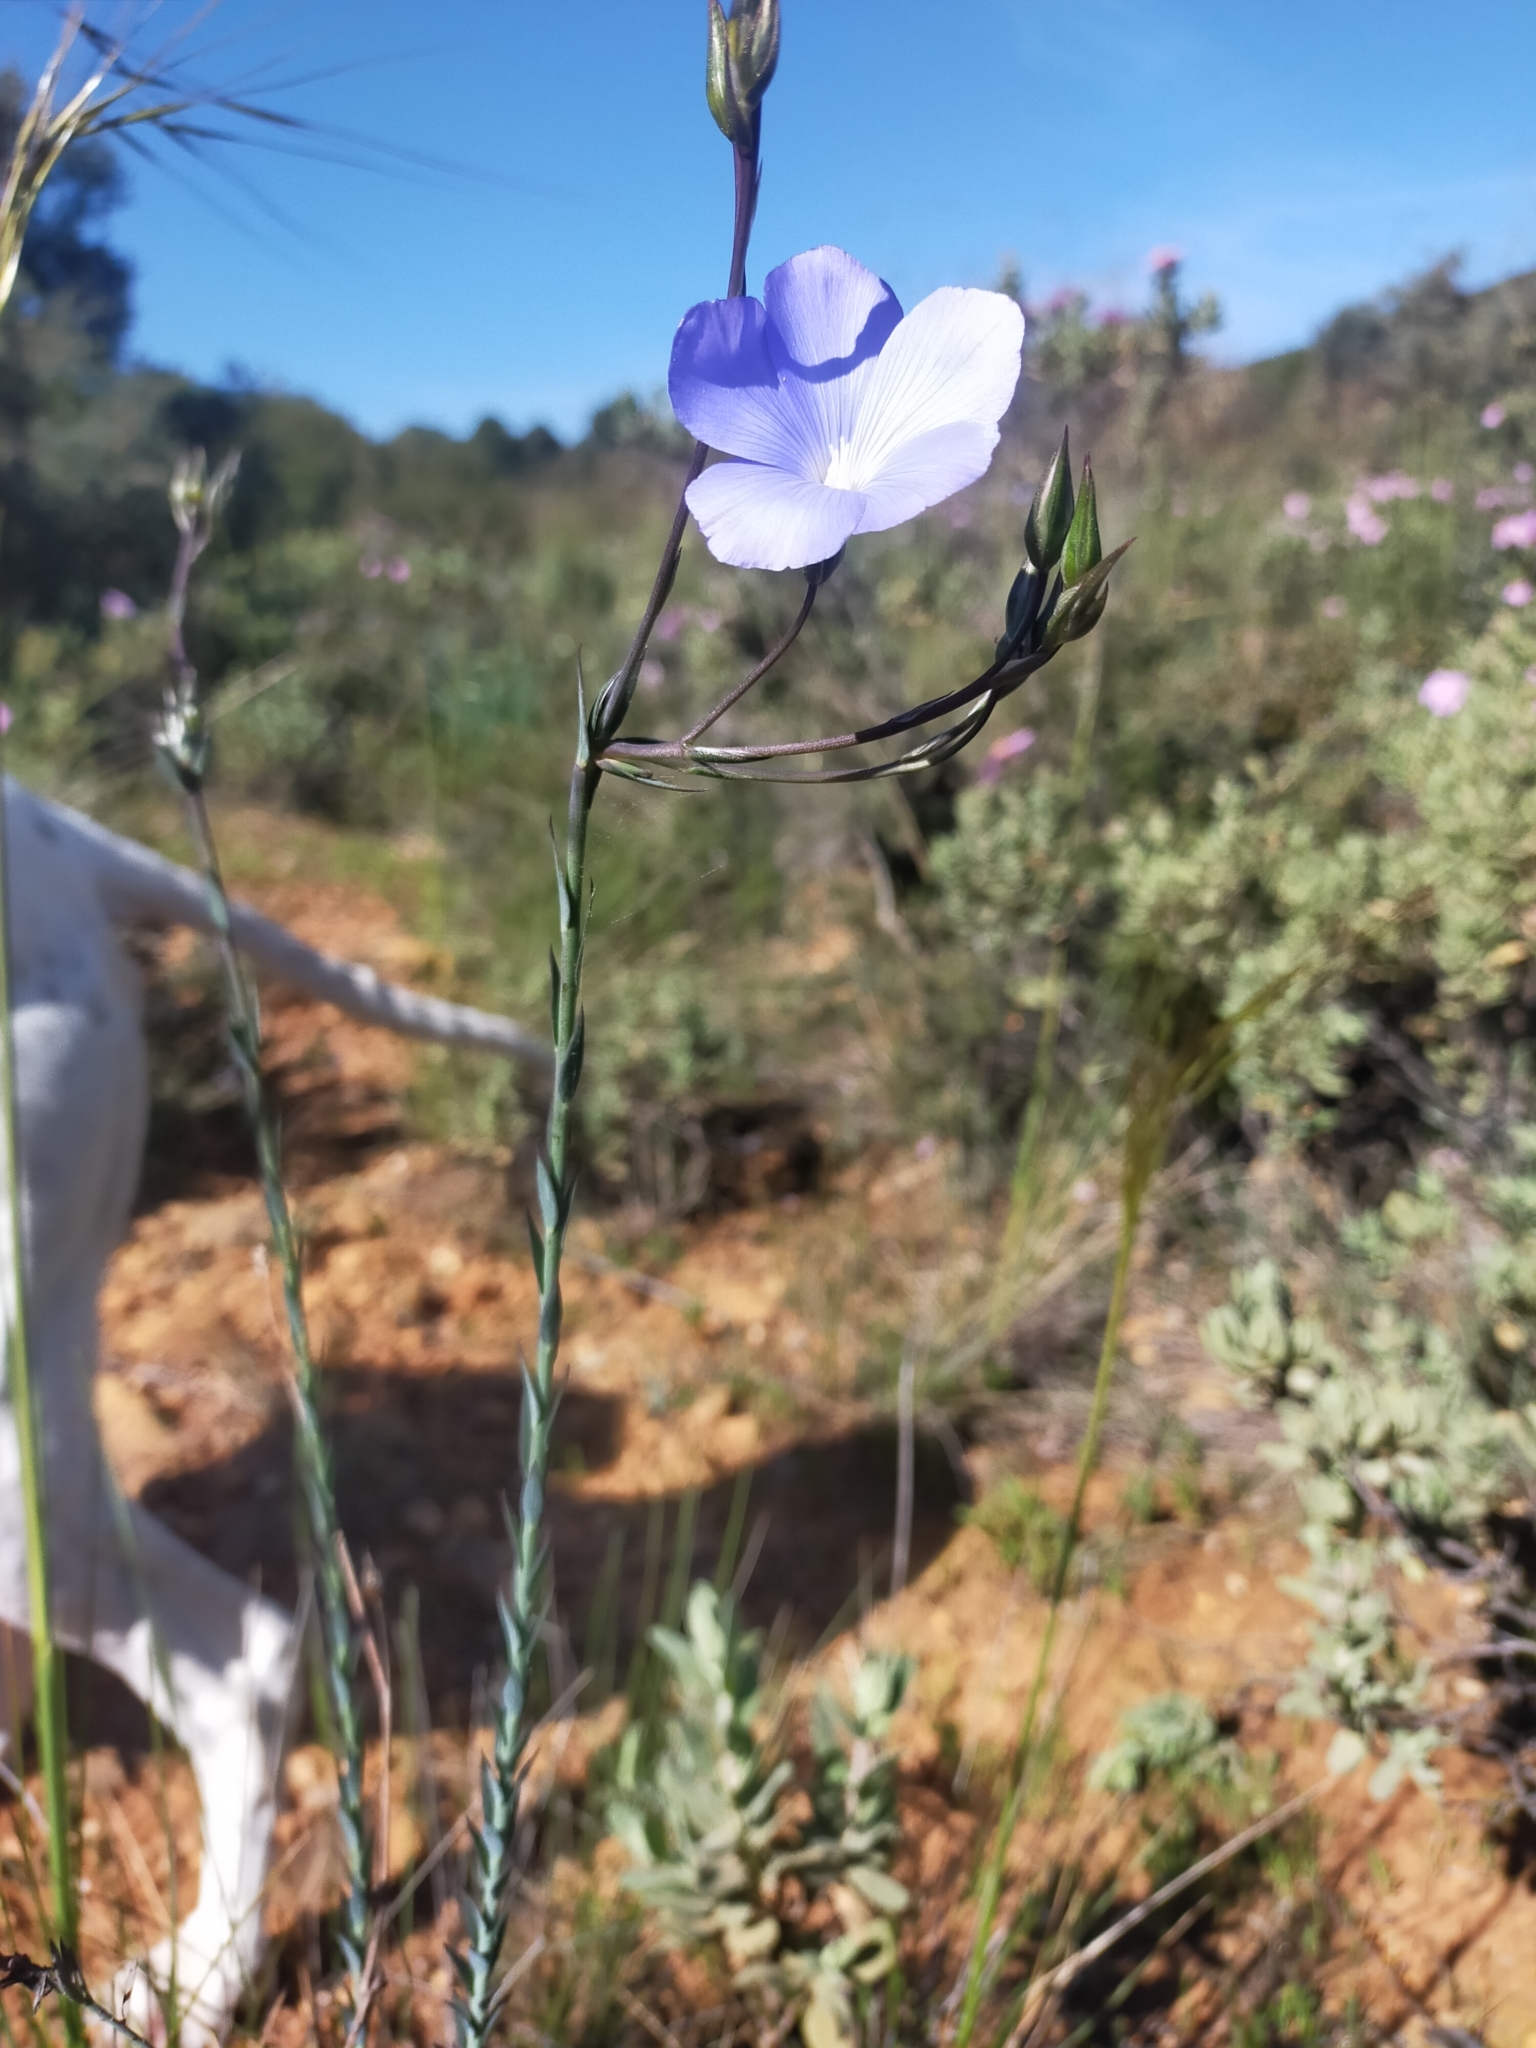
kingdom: Plantae
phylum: Tracheophyta
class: Magnoliopsida
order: Malpighiales
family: Linaceae
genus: Linum
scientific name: Linum narbonense
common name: Flax
